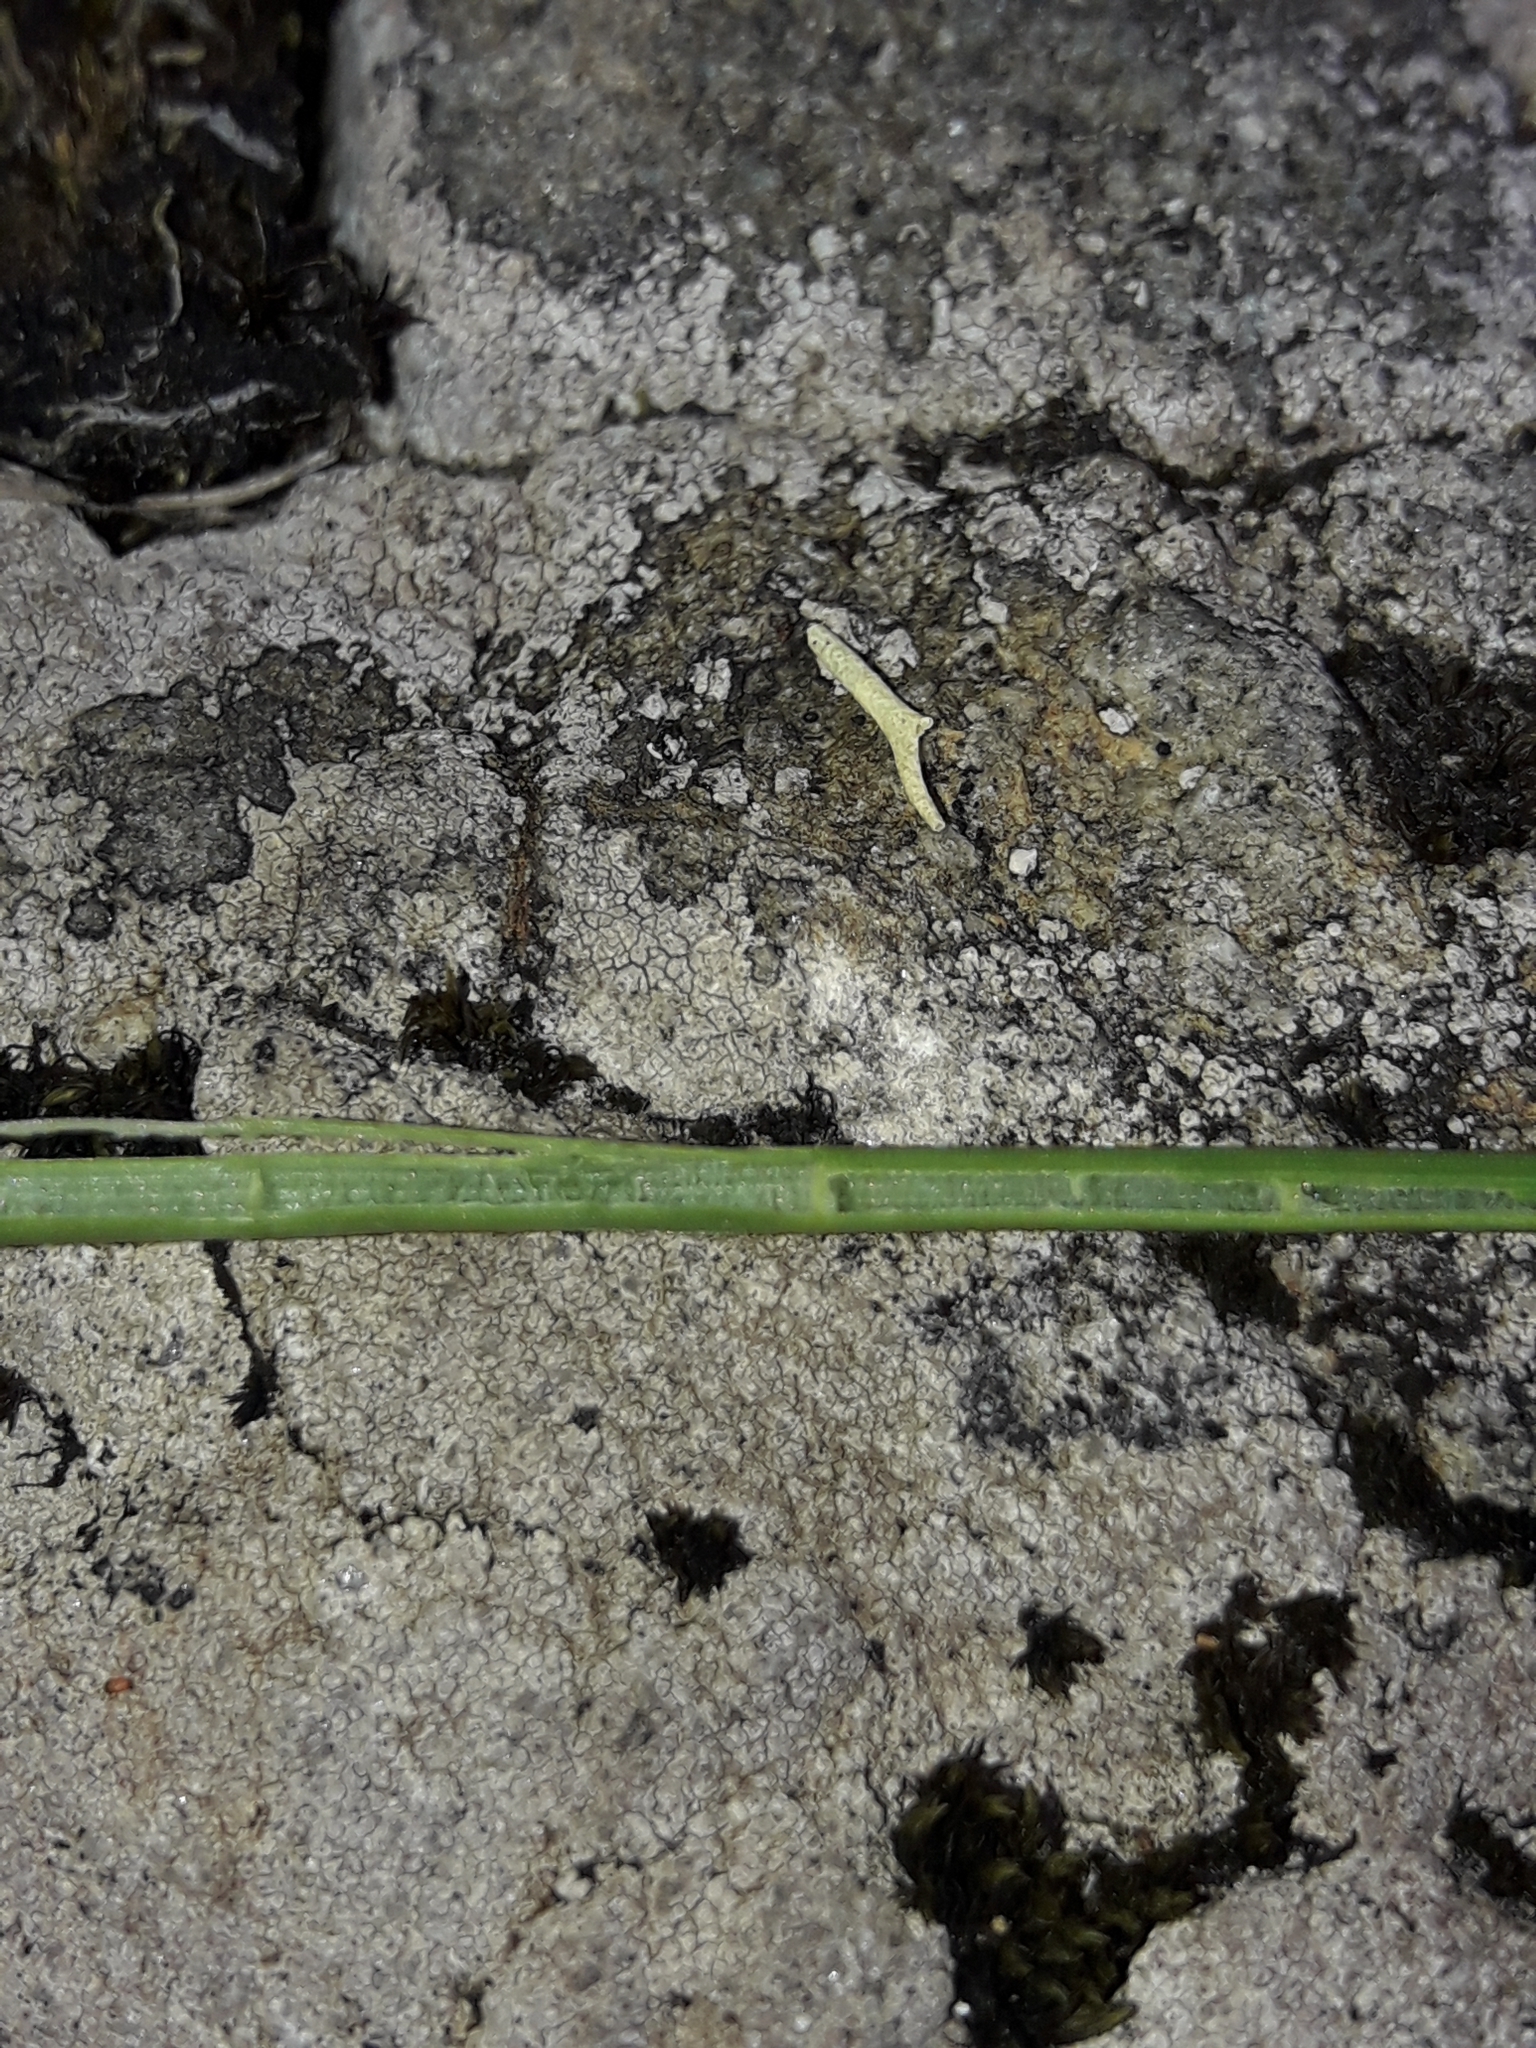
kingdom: Plantae
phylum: Tracheophyta
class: Liliopsida
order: Poales
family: Juncaceae
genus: Juncus
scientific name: Juncus articulatus
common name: Jointed rush
